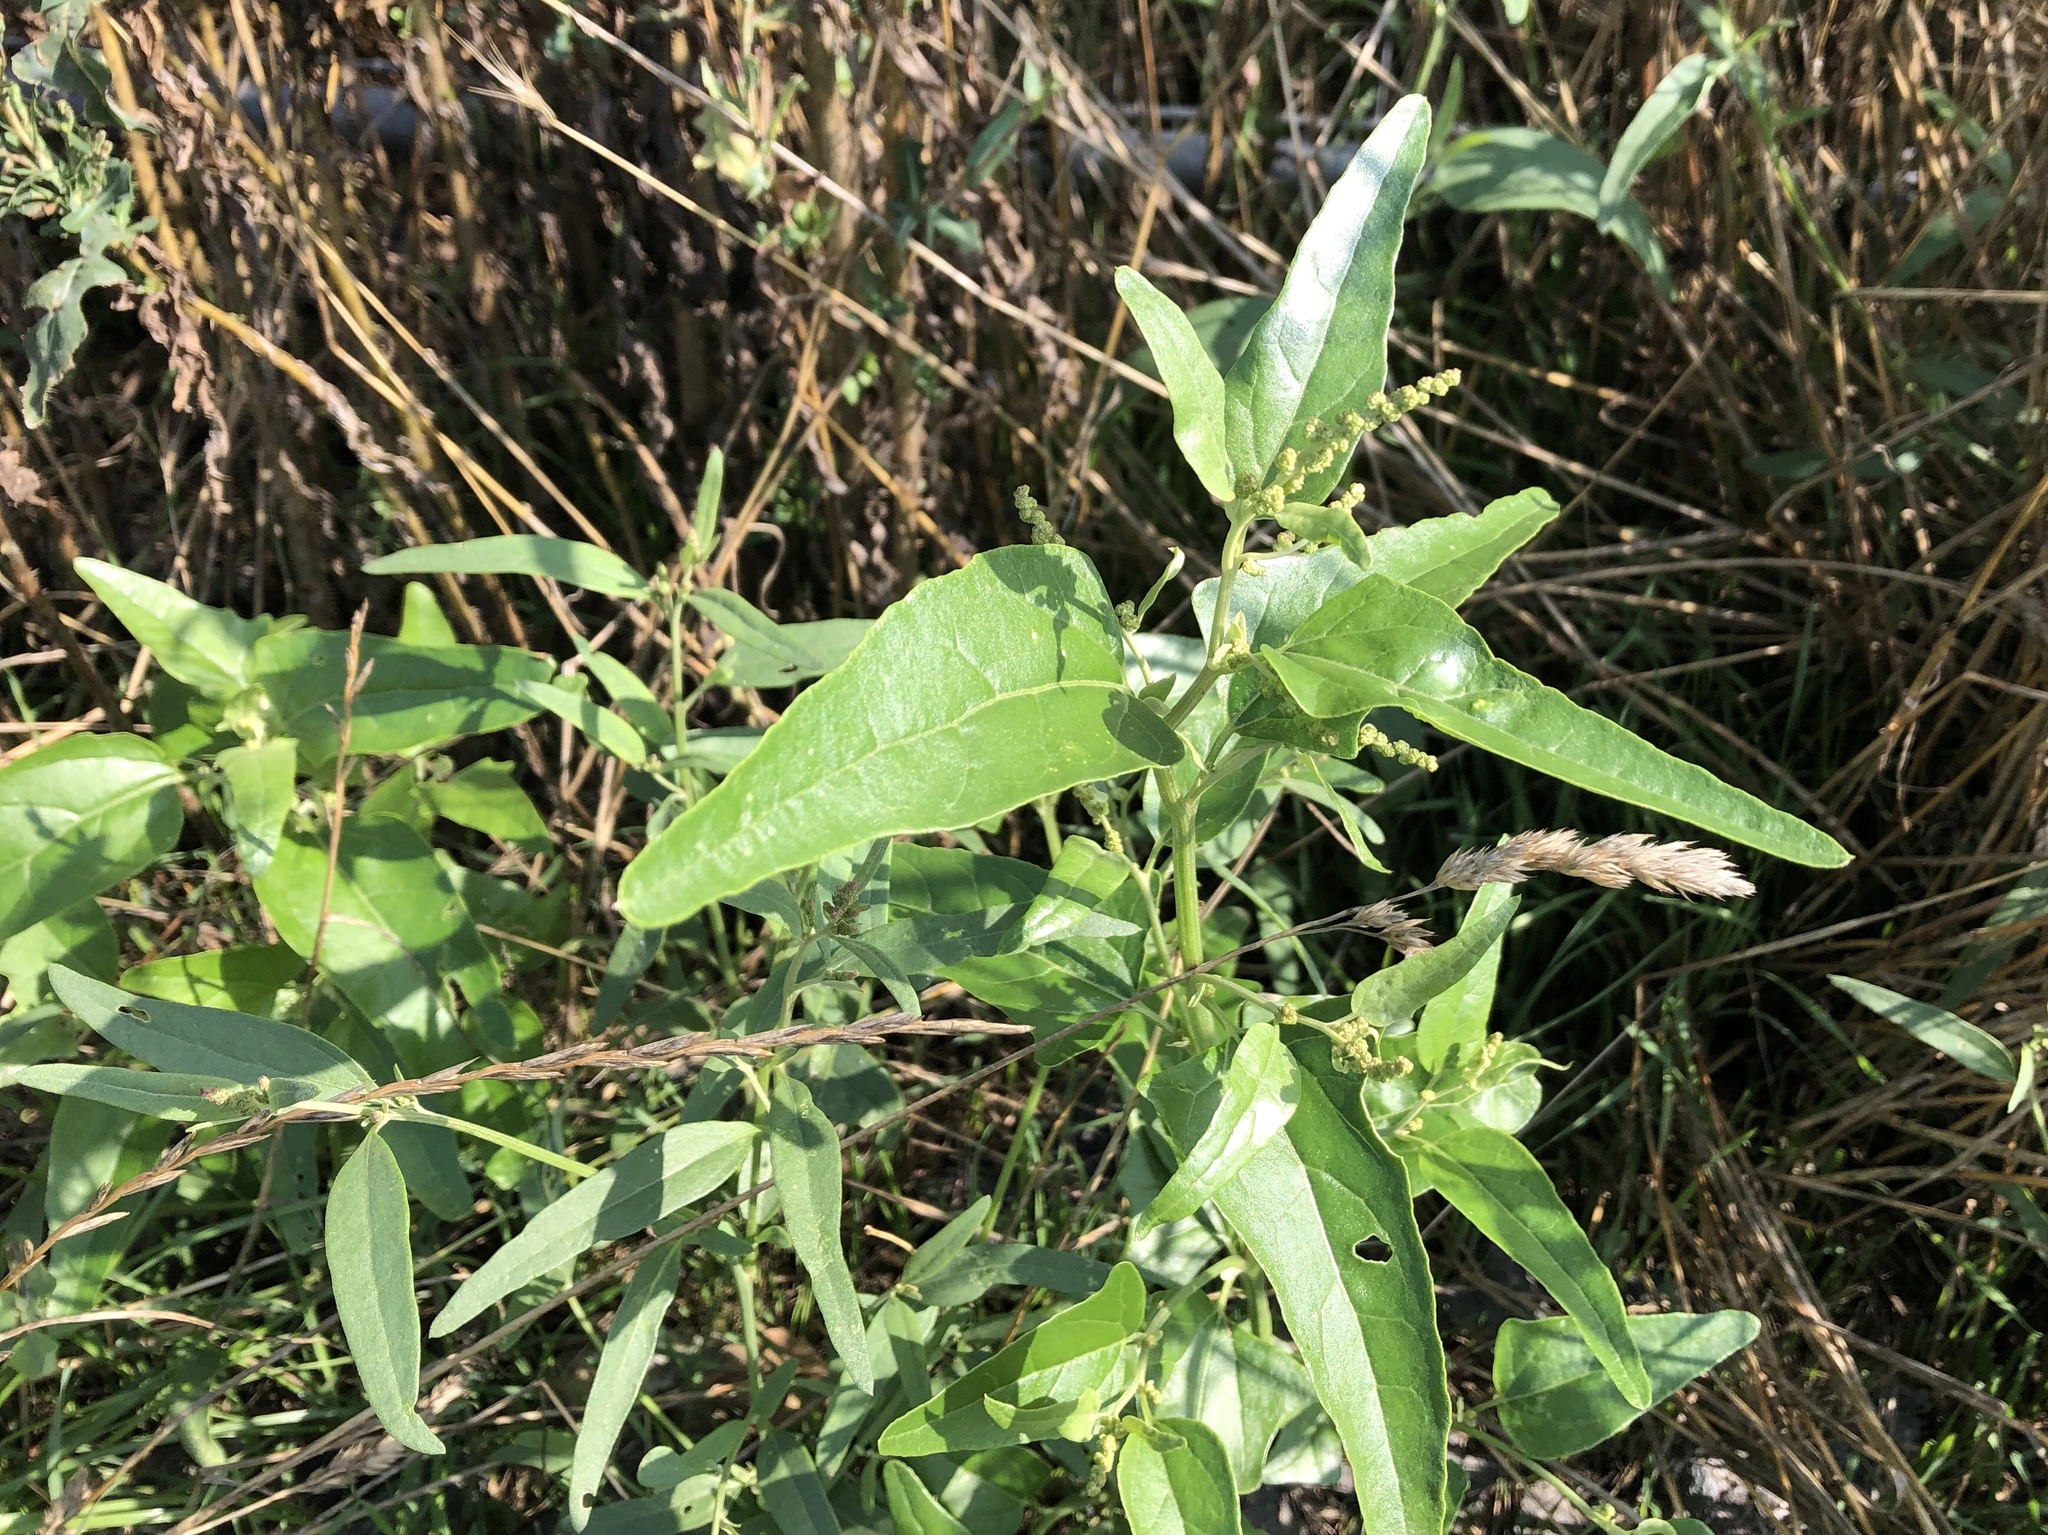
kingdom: Plantae
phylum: Tracheophyta
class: Magnoliopsida
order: Caryophyllales
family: Amaranthaceae
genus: Atriplex
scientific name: Atriplex sagittata
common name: Purple orache
